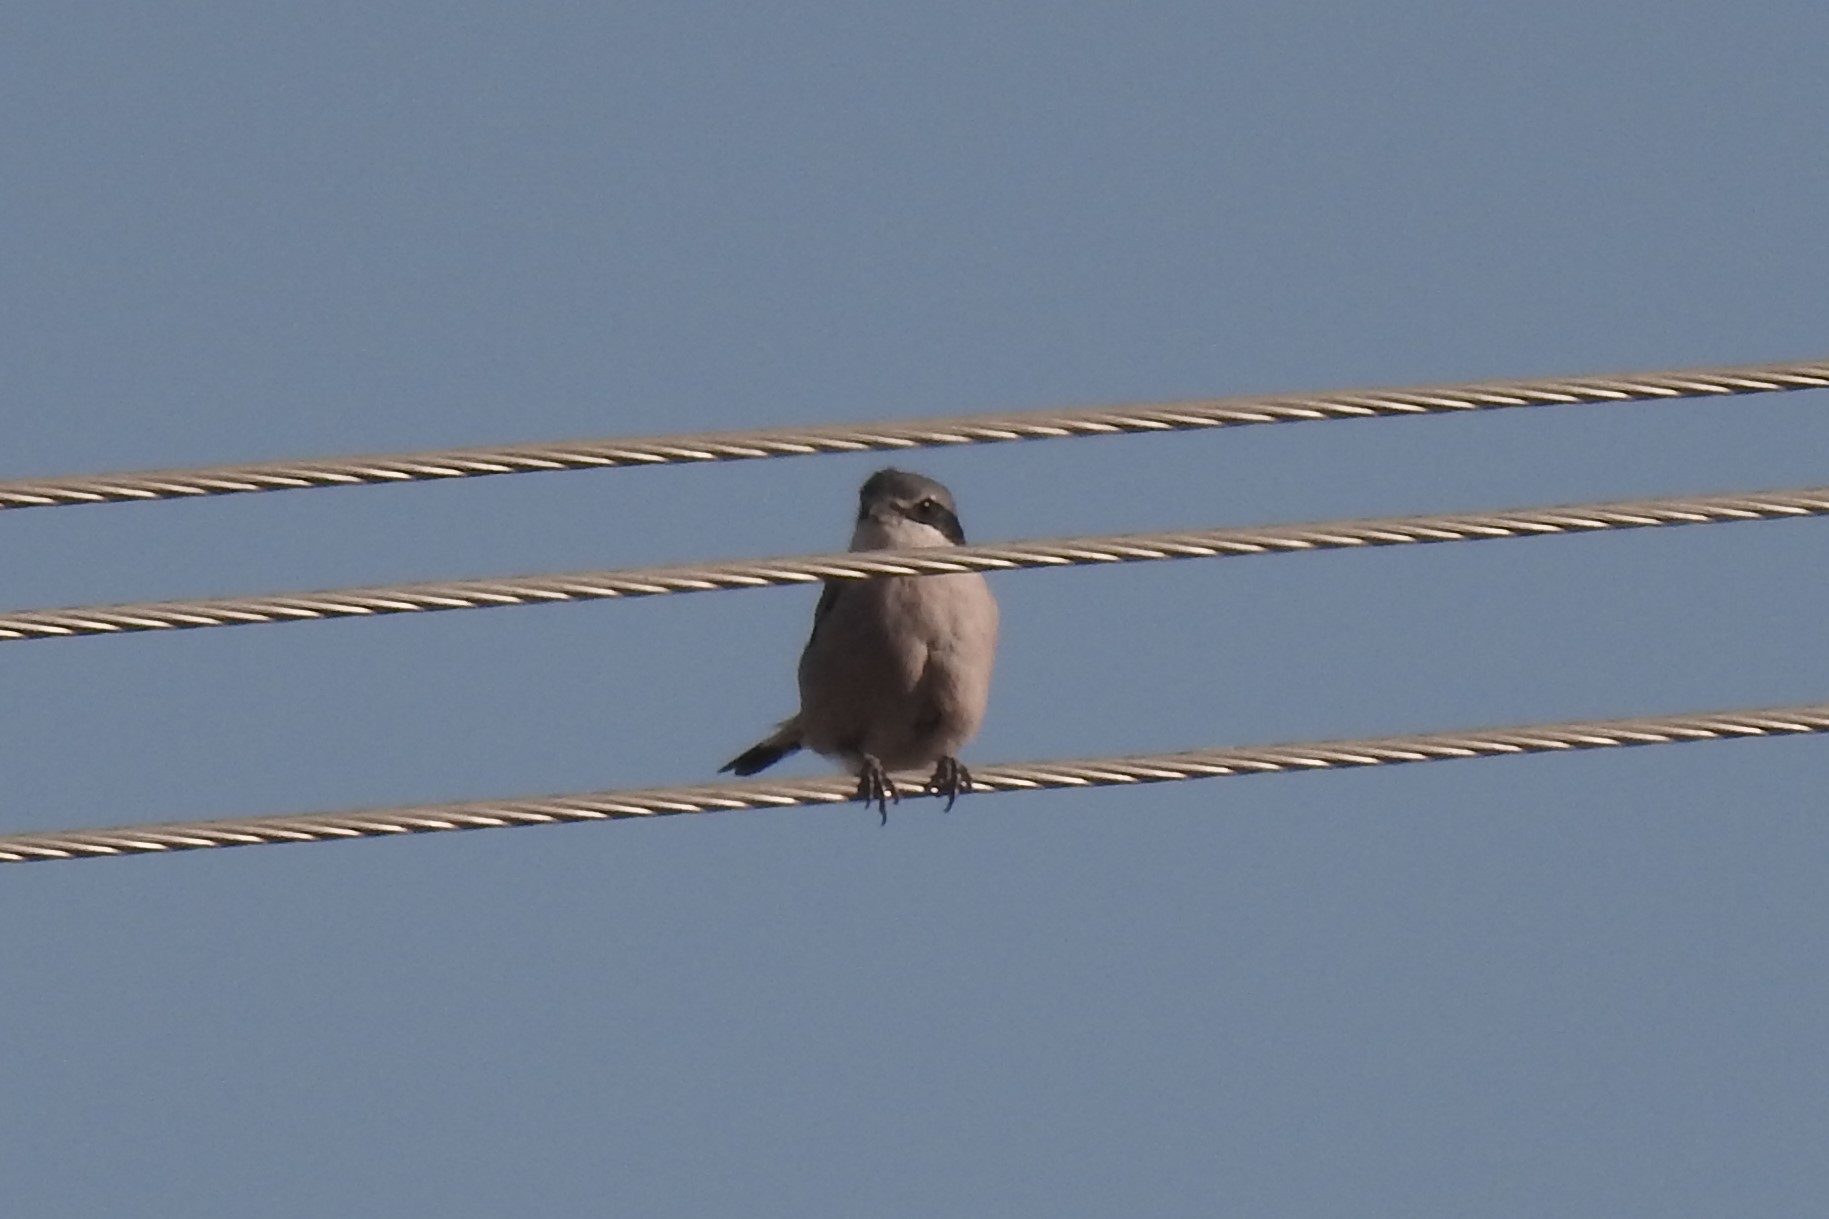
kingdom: Animalia
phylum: Chordata
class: Aves
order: Passeriformes
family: Laniidae
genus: Lanius
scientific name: Lanius meridionalis
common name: Iberian grey shrike
